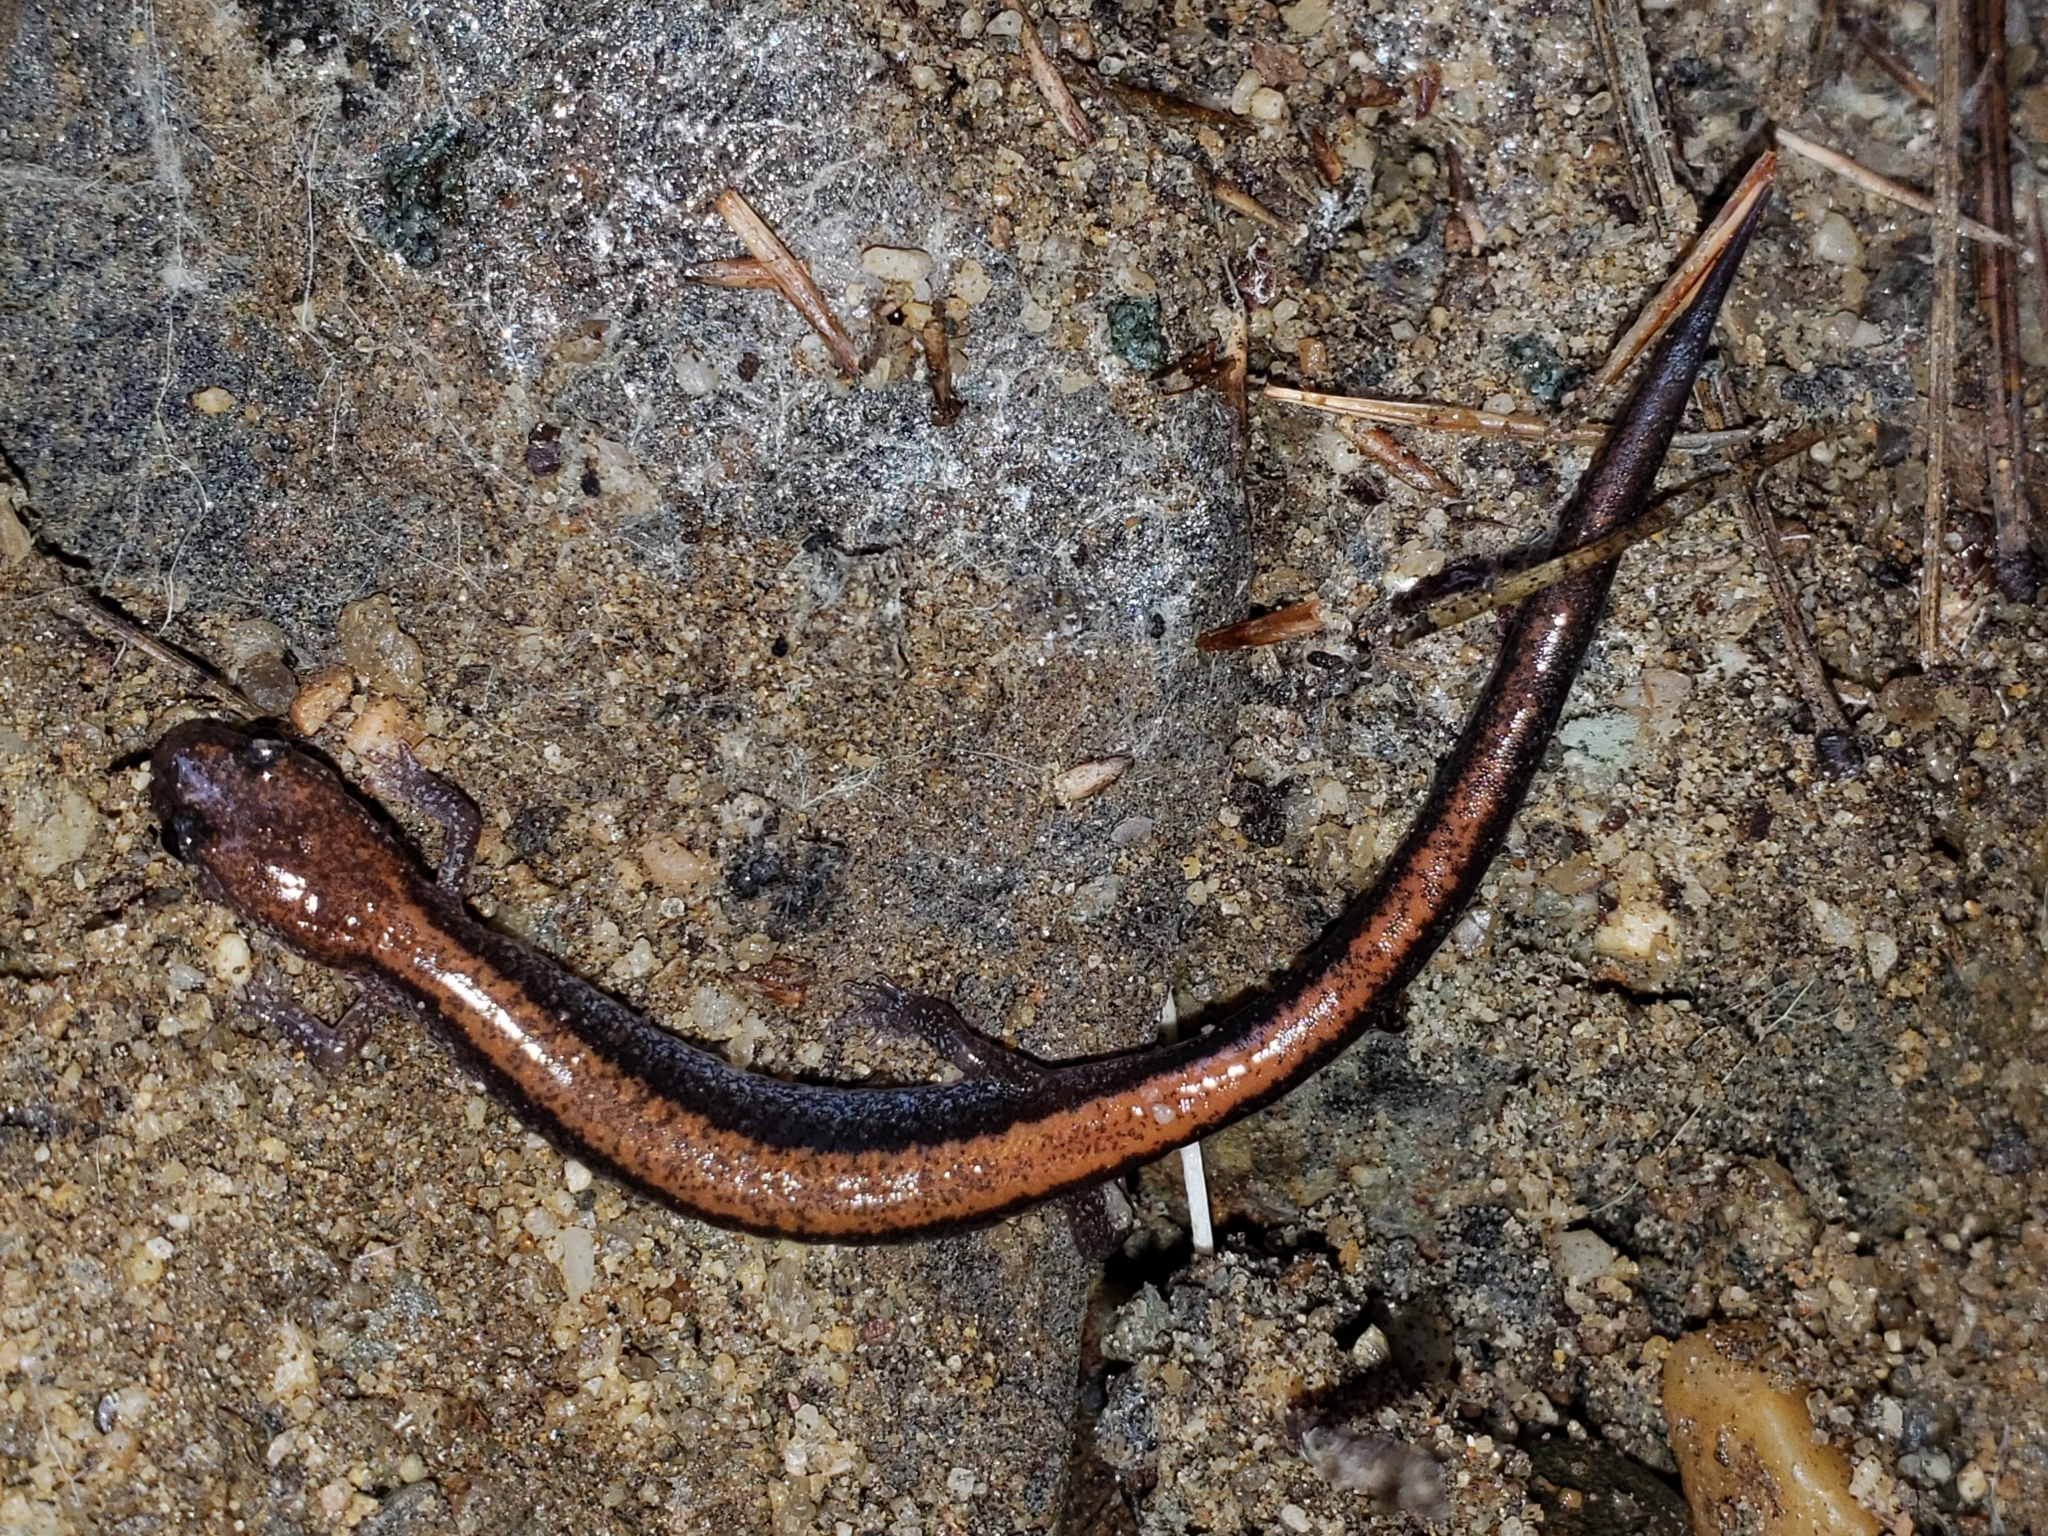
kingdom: Animalia
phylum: Chordata
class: Amphibia
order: Caudata
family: Plethodontidae
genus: Plethodon
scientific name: Plethodon cinereus
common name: Redback salamander
